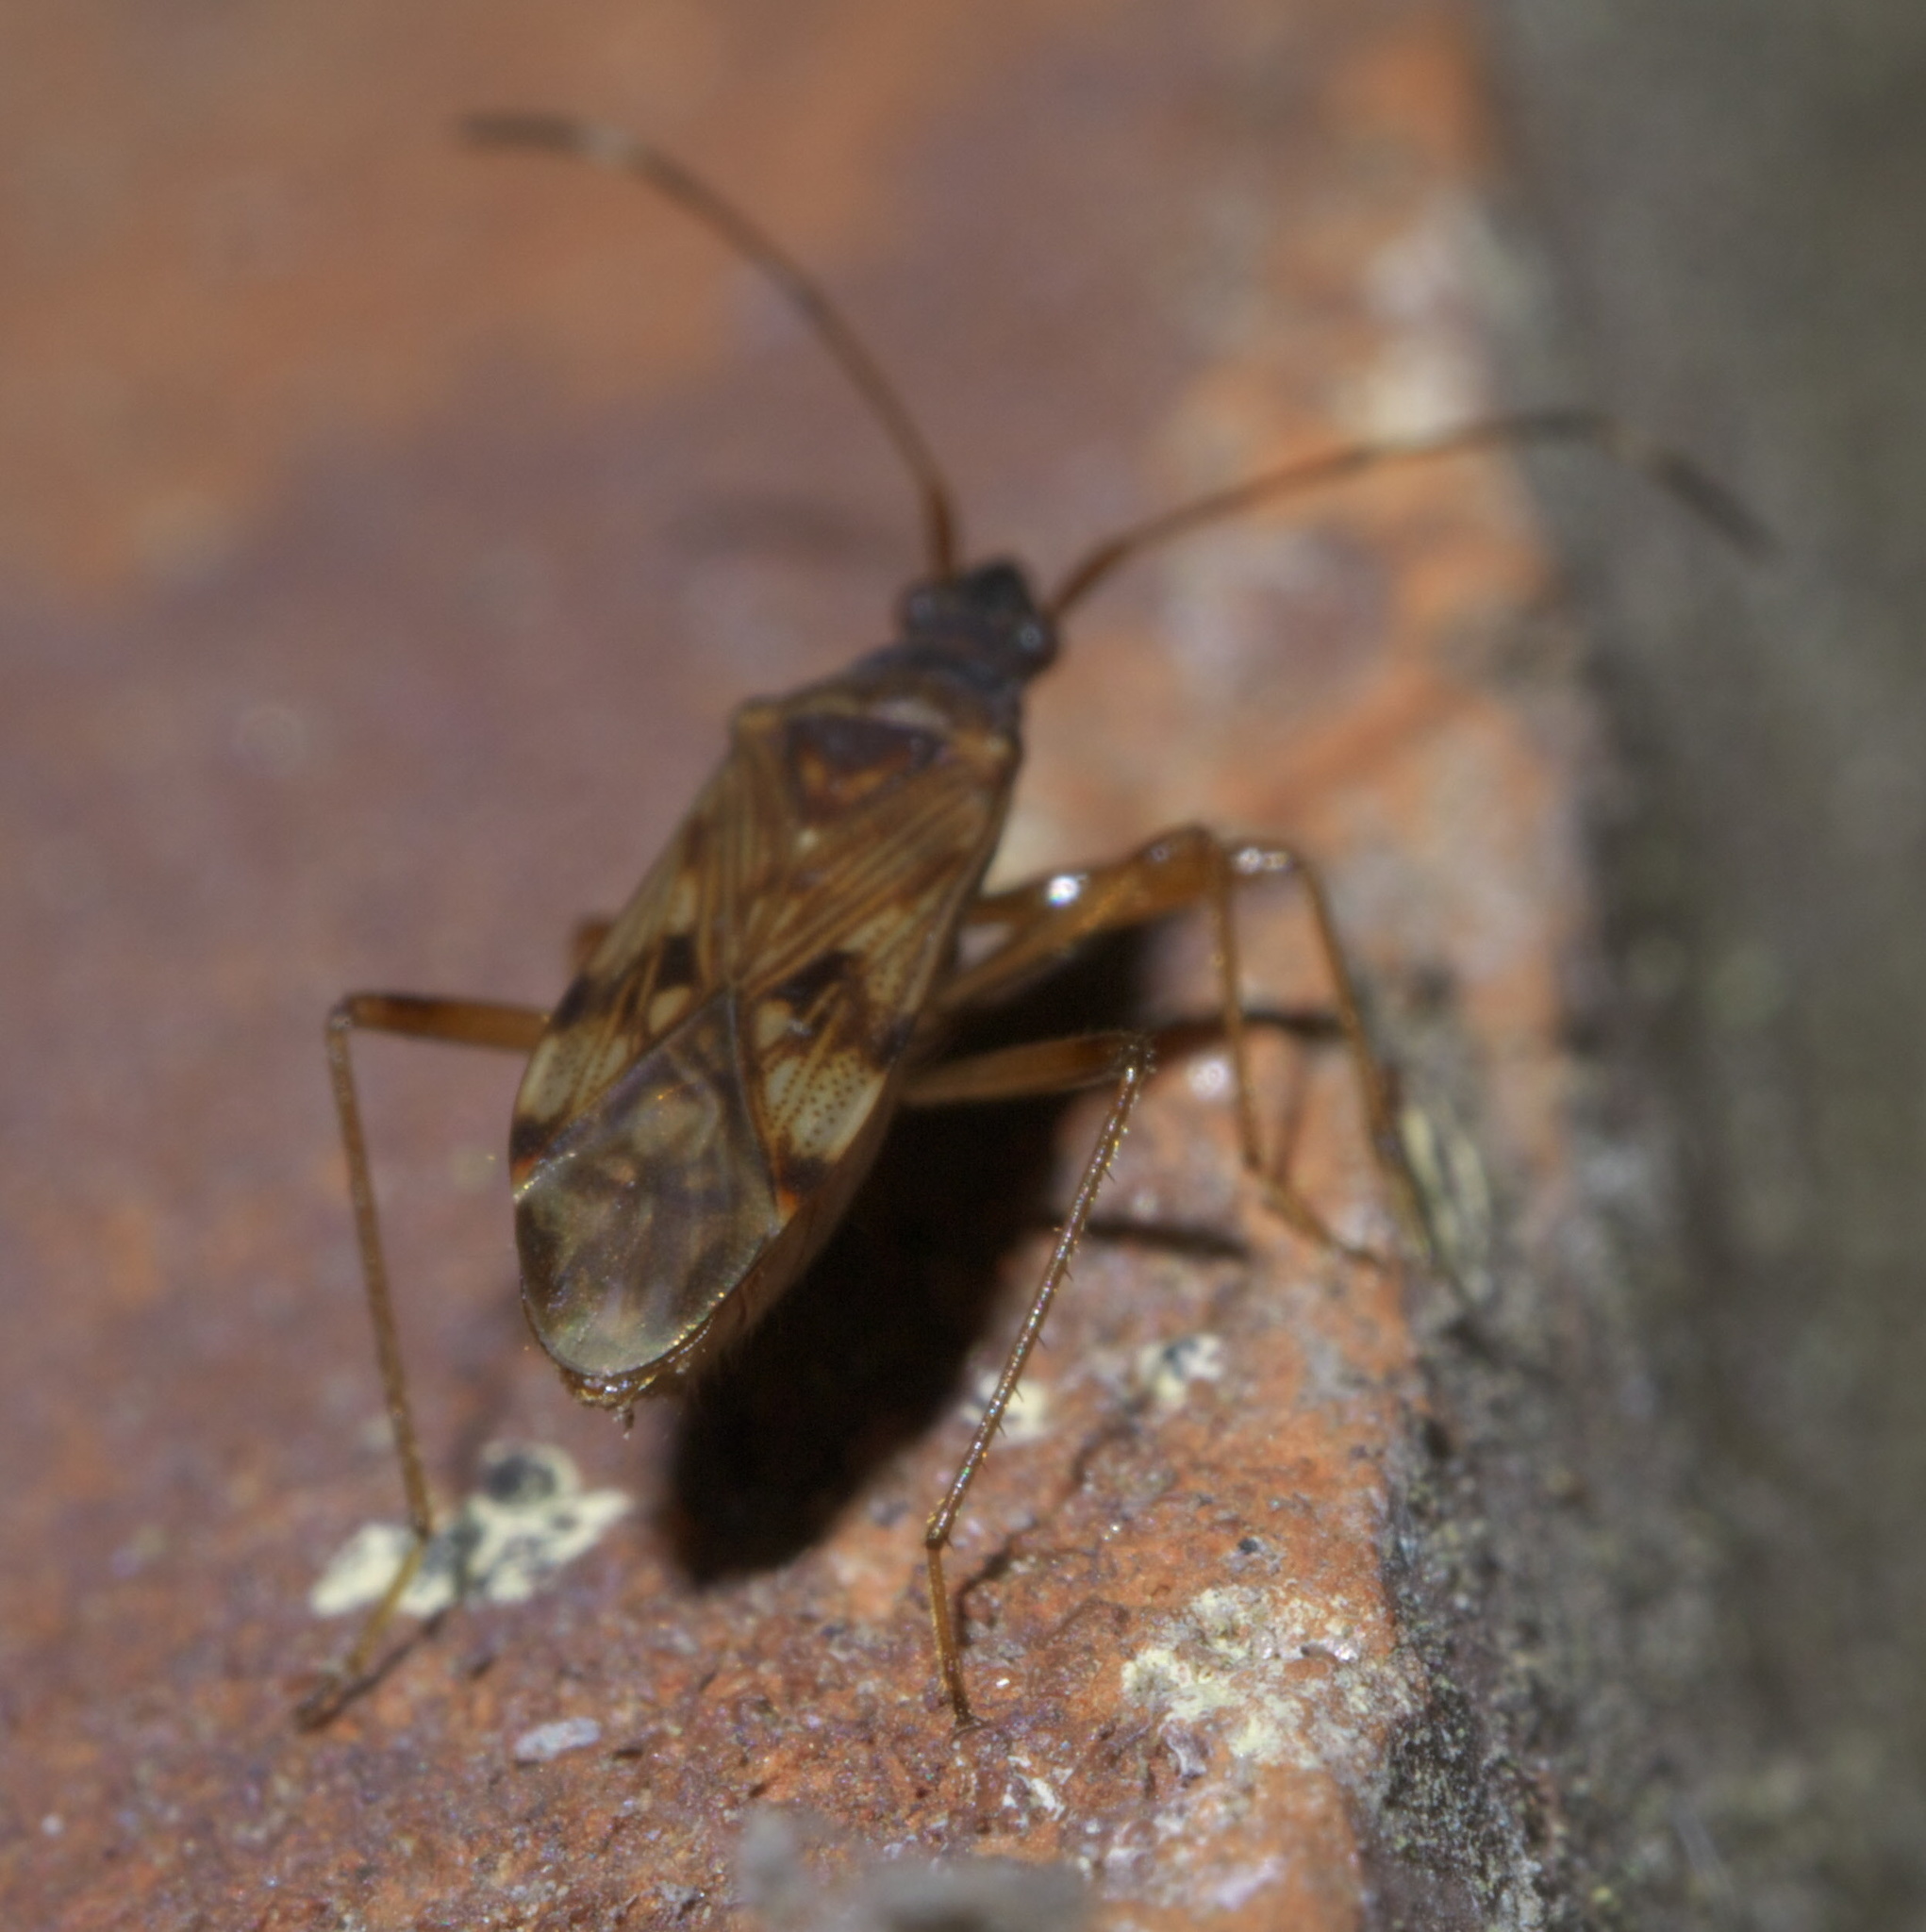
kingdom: Animalia
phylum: Arthropoda
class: Insecta
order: Hemiptera
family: Rhyparochromidae
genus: Ozophora
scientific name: Ozophora picturata
